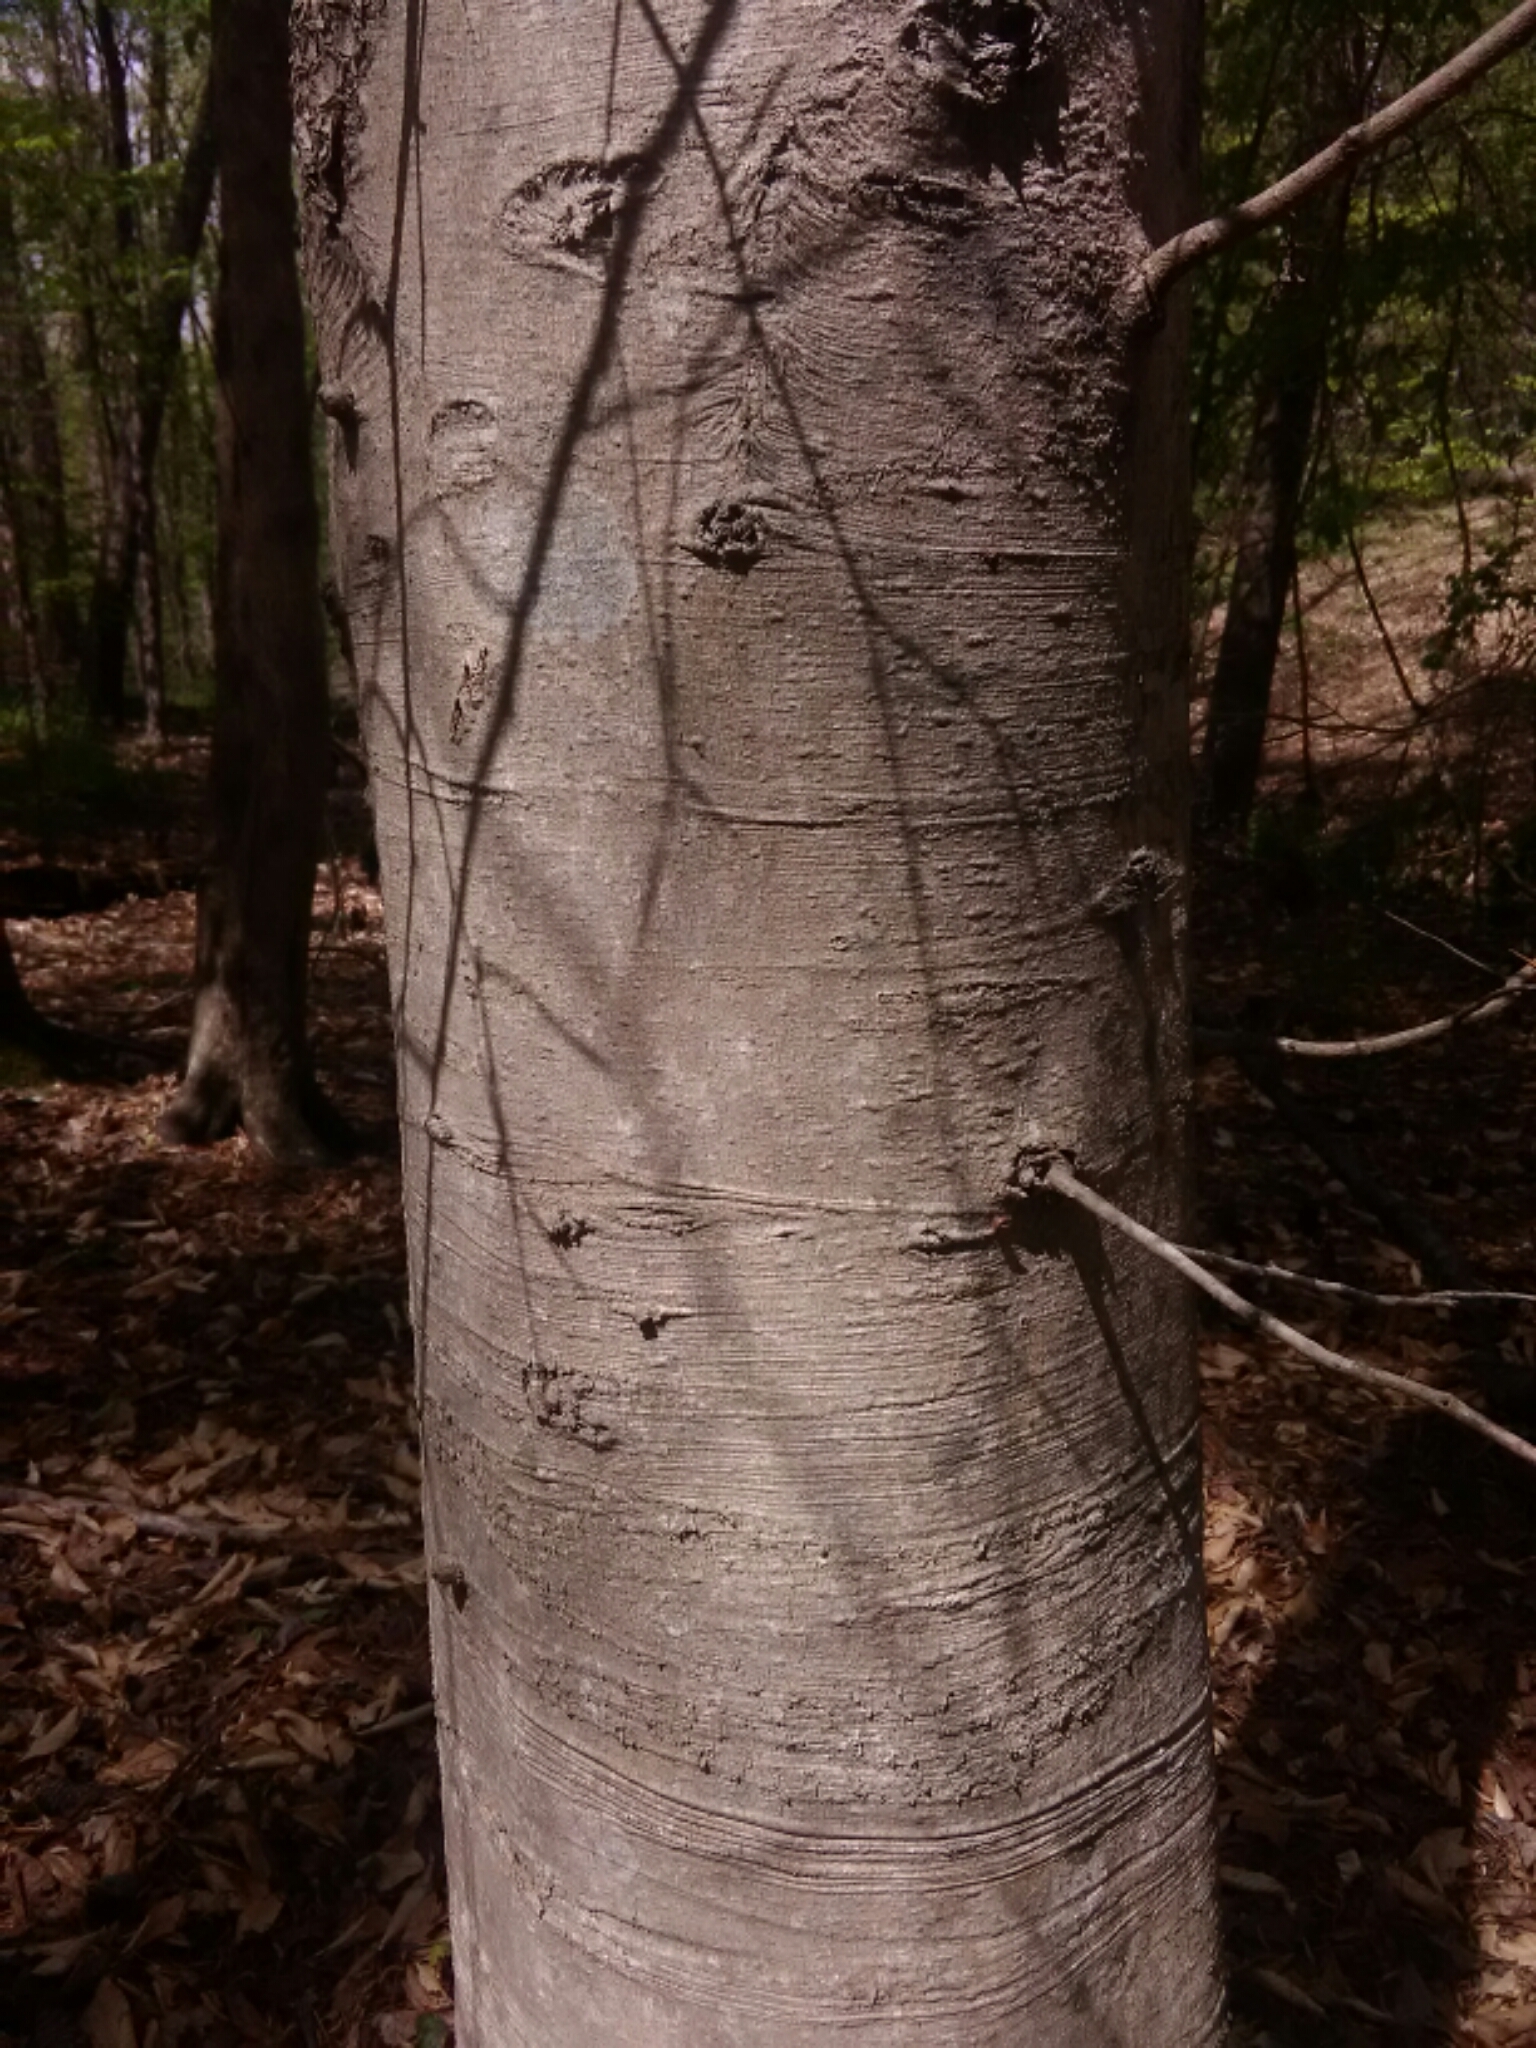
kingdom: Plantae
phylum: Tracheophyta
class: Magnoliopsida
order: Fagales
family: Fagaceae
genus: Fagus
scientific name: Fagus grandifolia
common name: American beech
